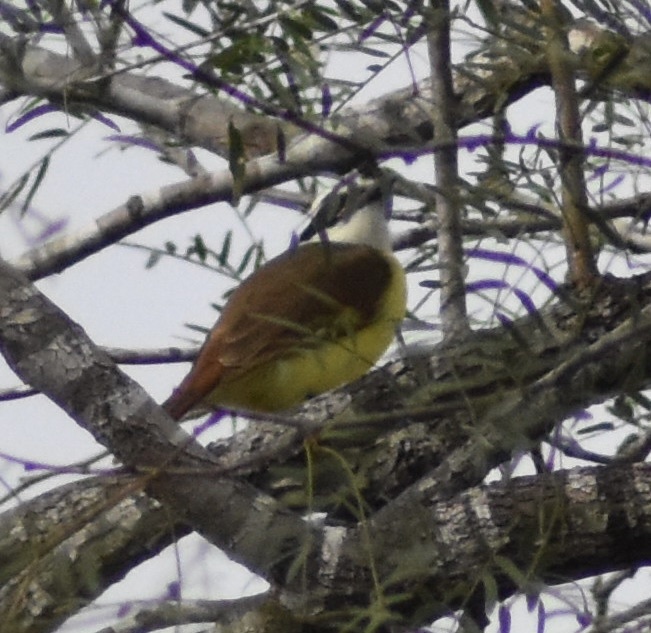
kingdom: Animalia
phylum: Chordata
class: Aves
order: Passeriformes
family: Tyrannidae
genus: Pitangus
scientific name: Pitangus sulphuratus
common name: Great kiskadee
